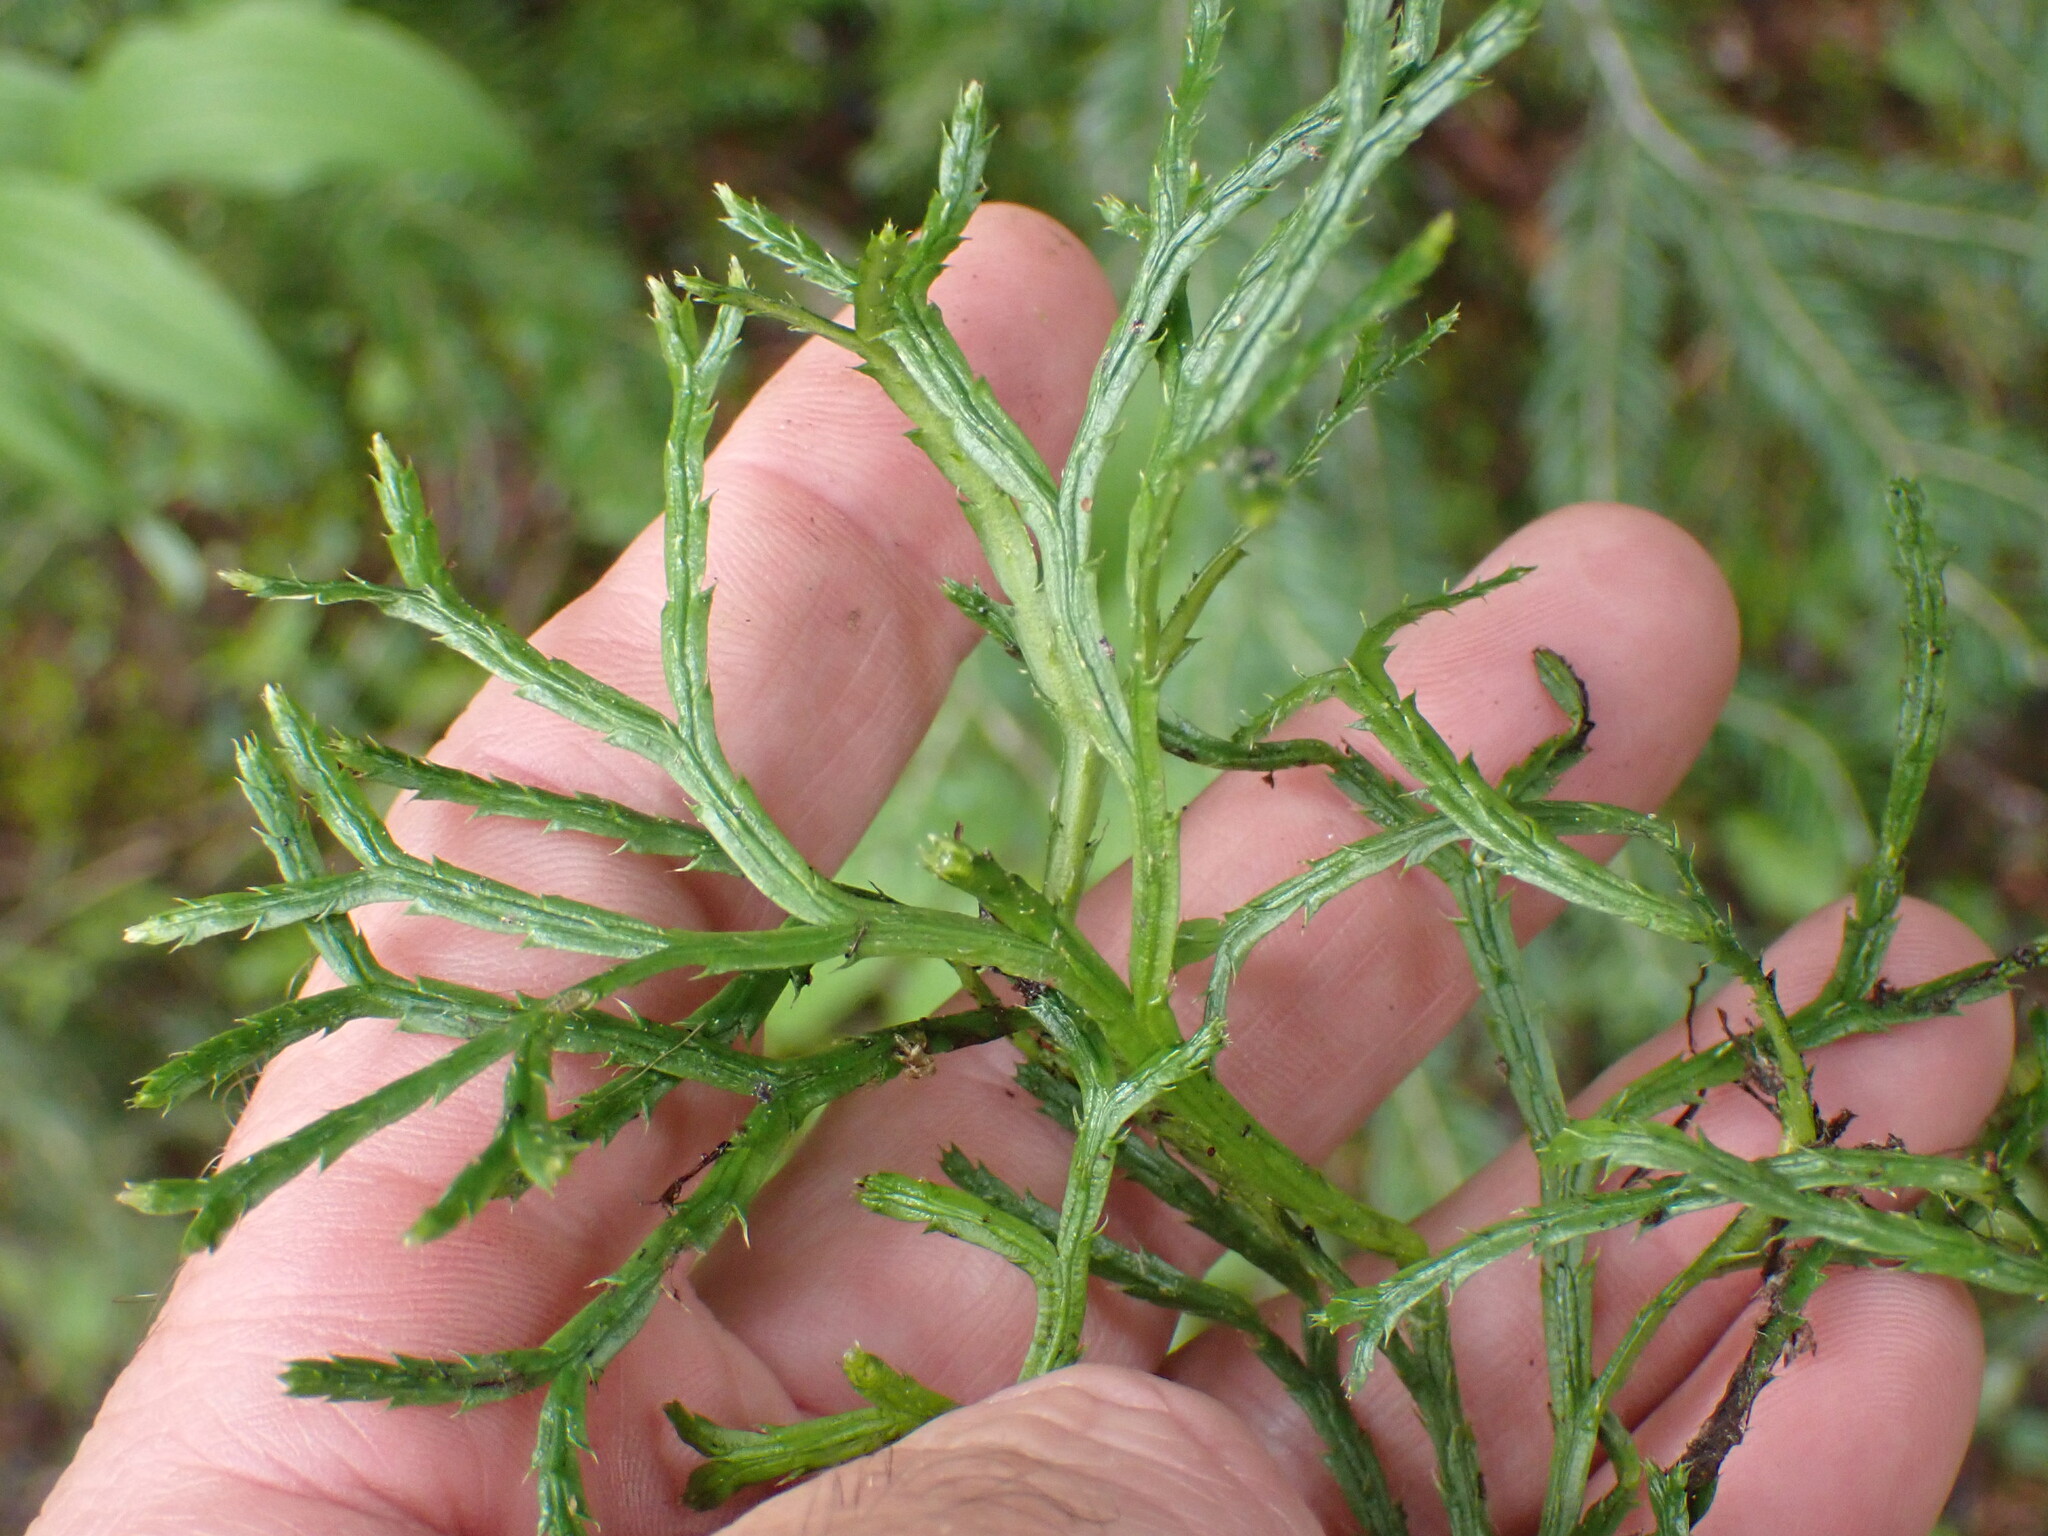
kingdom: Plantae
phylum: Tracheophyta
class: Lycopodiopsida
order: Lycopodiales
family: Lycopodiaceae
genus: Diphasiastrum
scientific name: Diphasiastrum complanatum
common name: Northern running-pine
